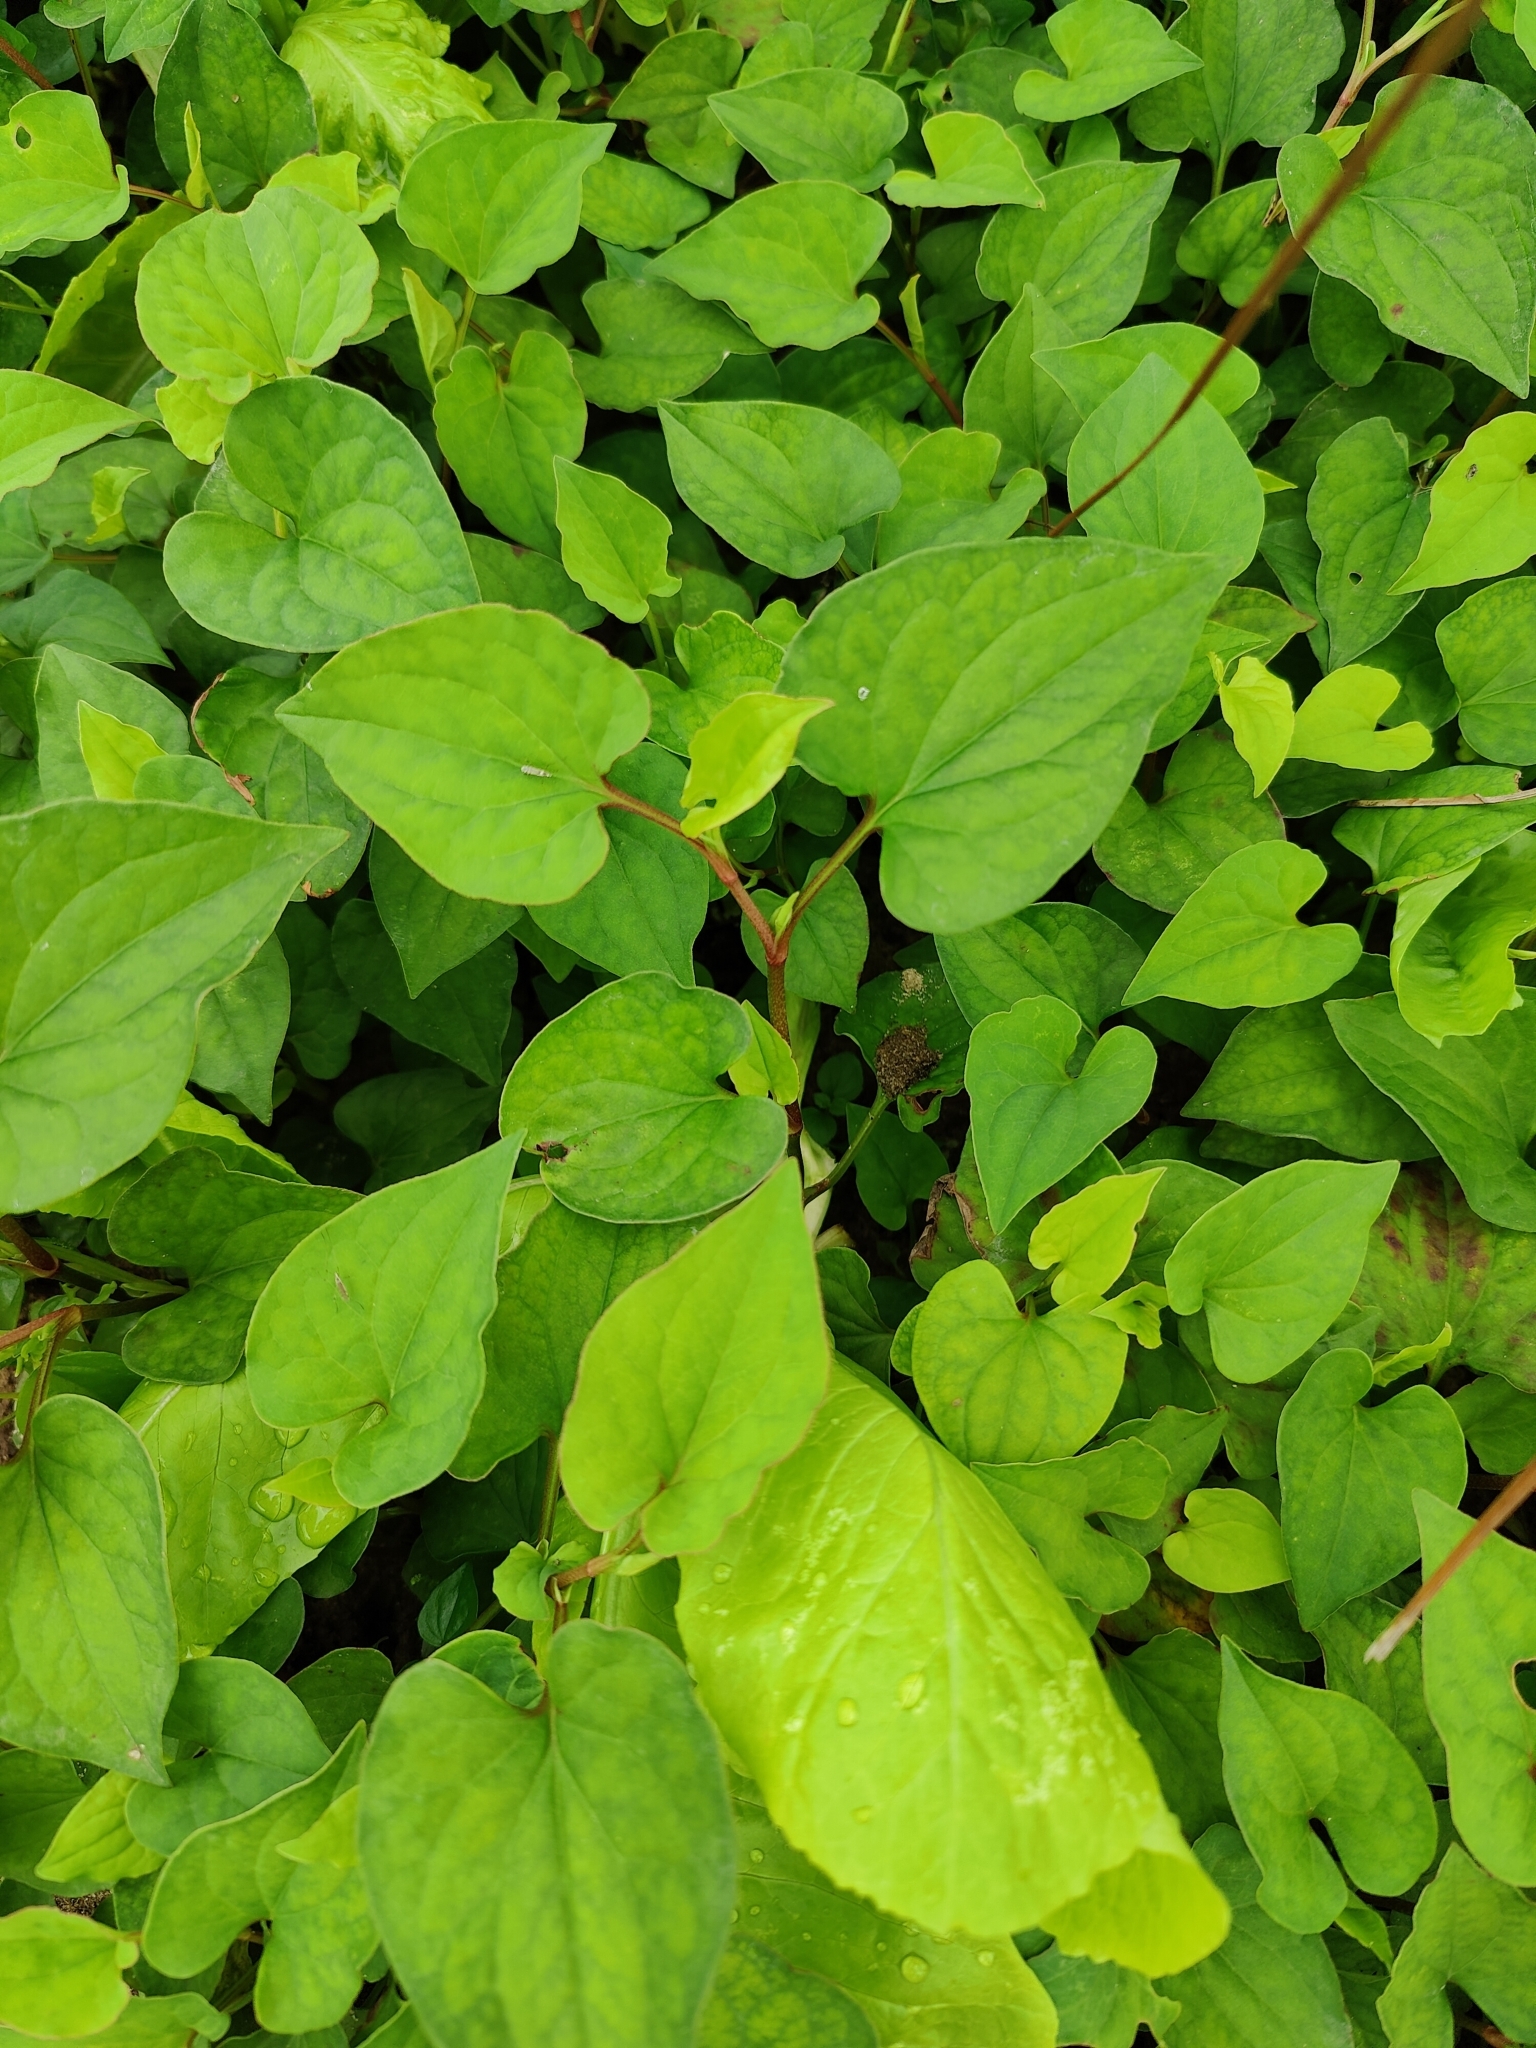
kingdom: Plantae
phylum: Tracheophyta
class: Magnoliopsida
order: Piperales
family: Saururaceae
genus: Houttuynia
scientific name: Houttuynia cordata
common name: Chameleon
